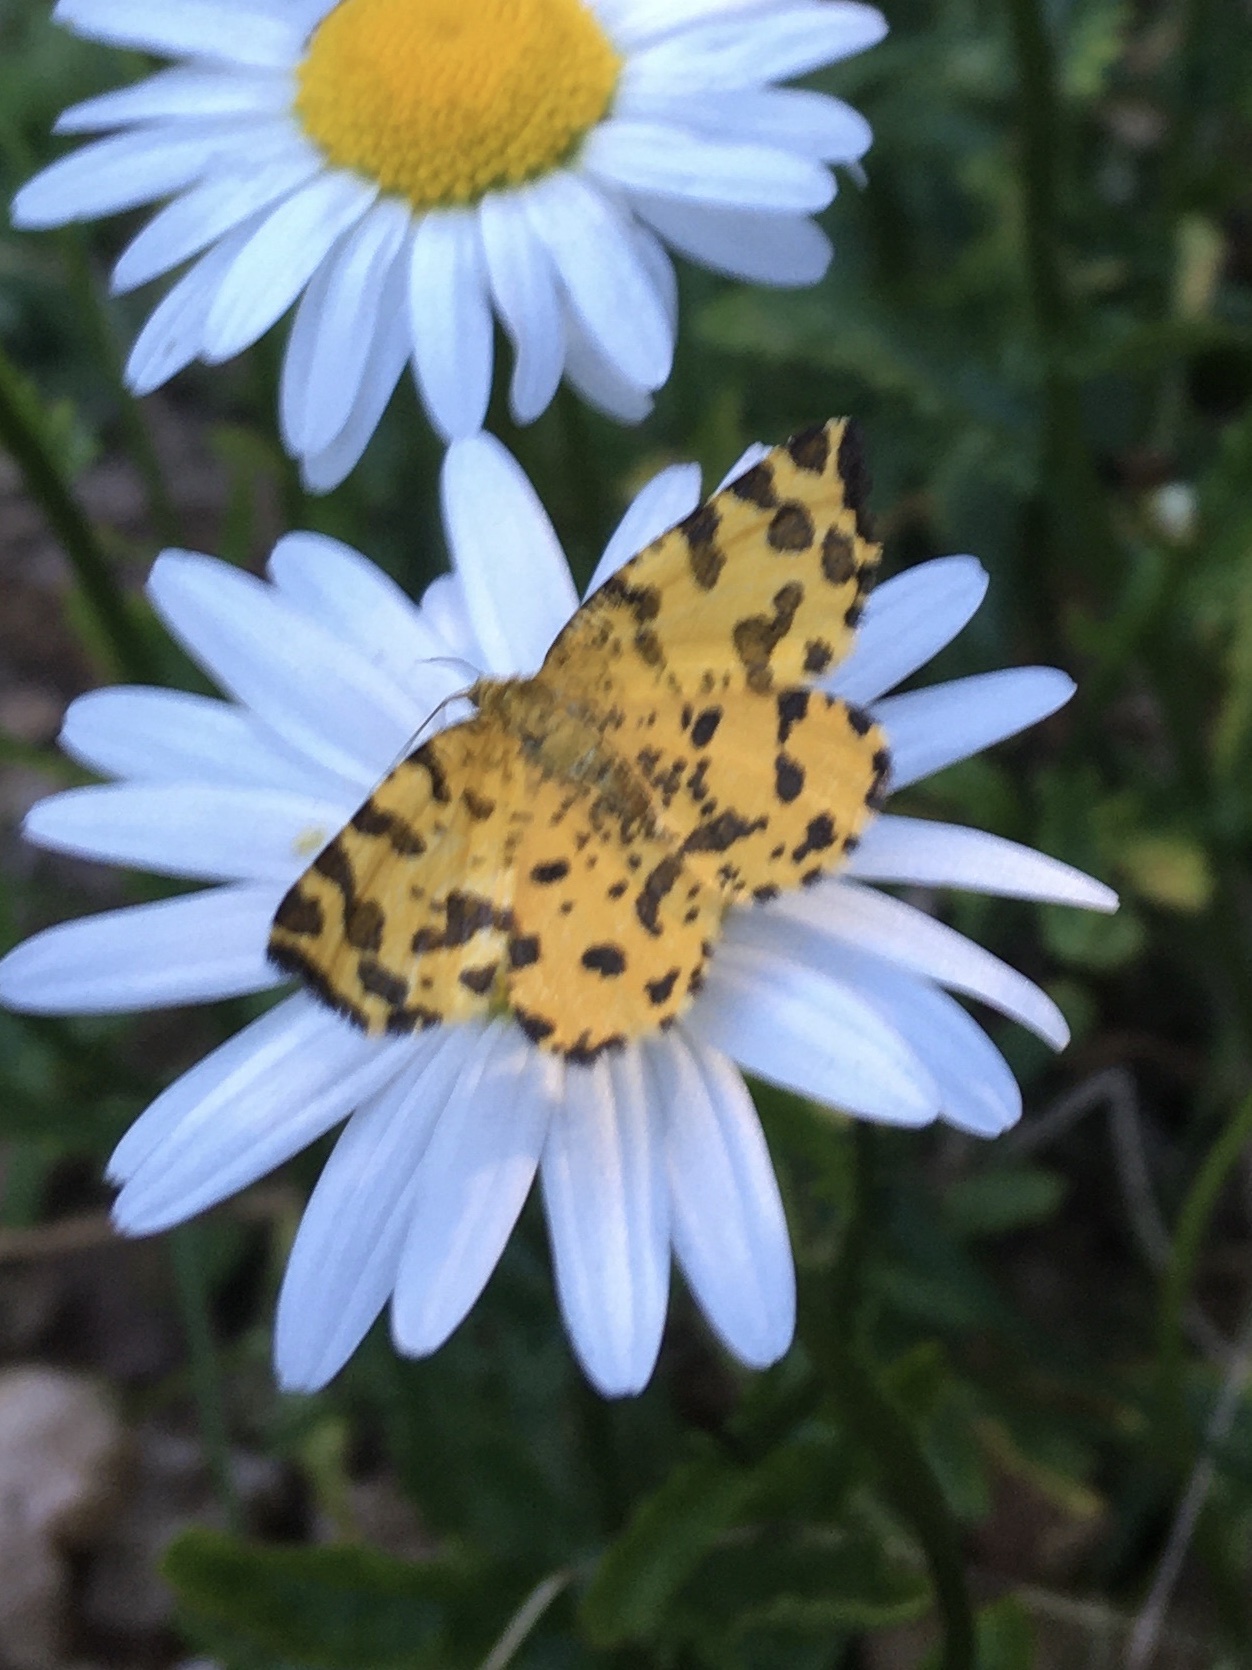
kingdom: Animalia
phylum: Arthropoda
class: Insecta
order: Lepidoptera
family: Geometridae
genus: Pseudopanthera
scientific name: Pseudopanthera macularia
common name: Speckled yellow
